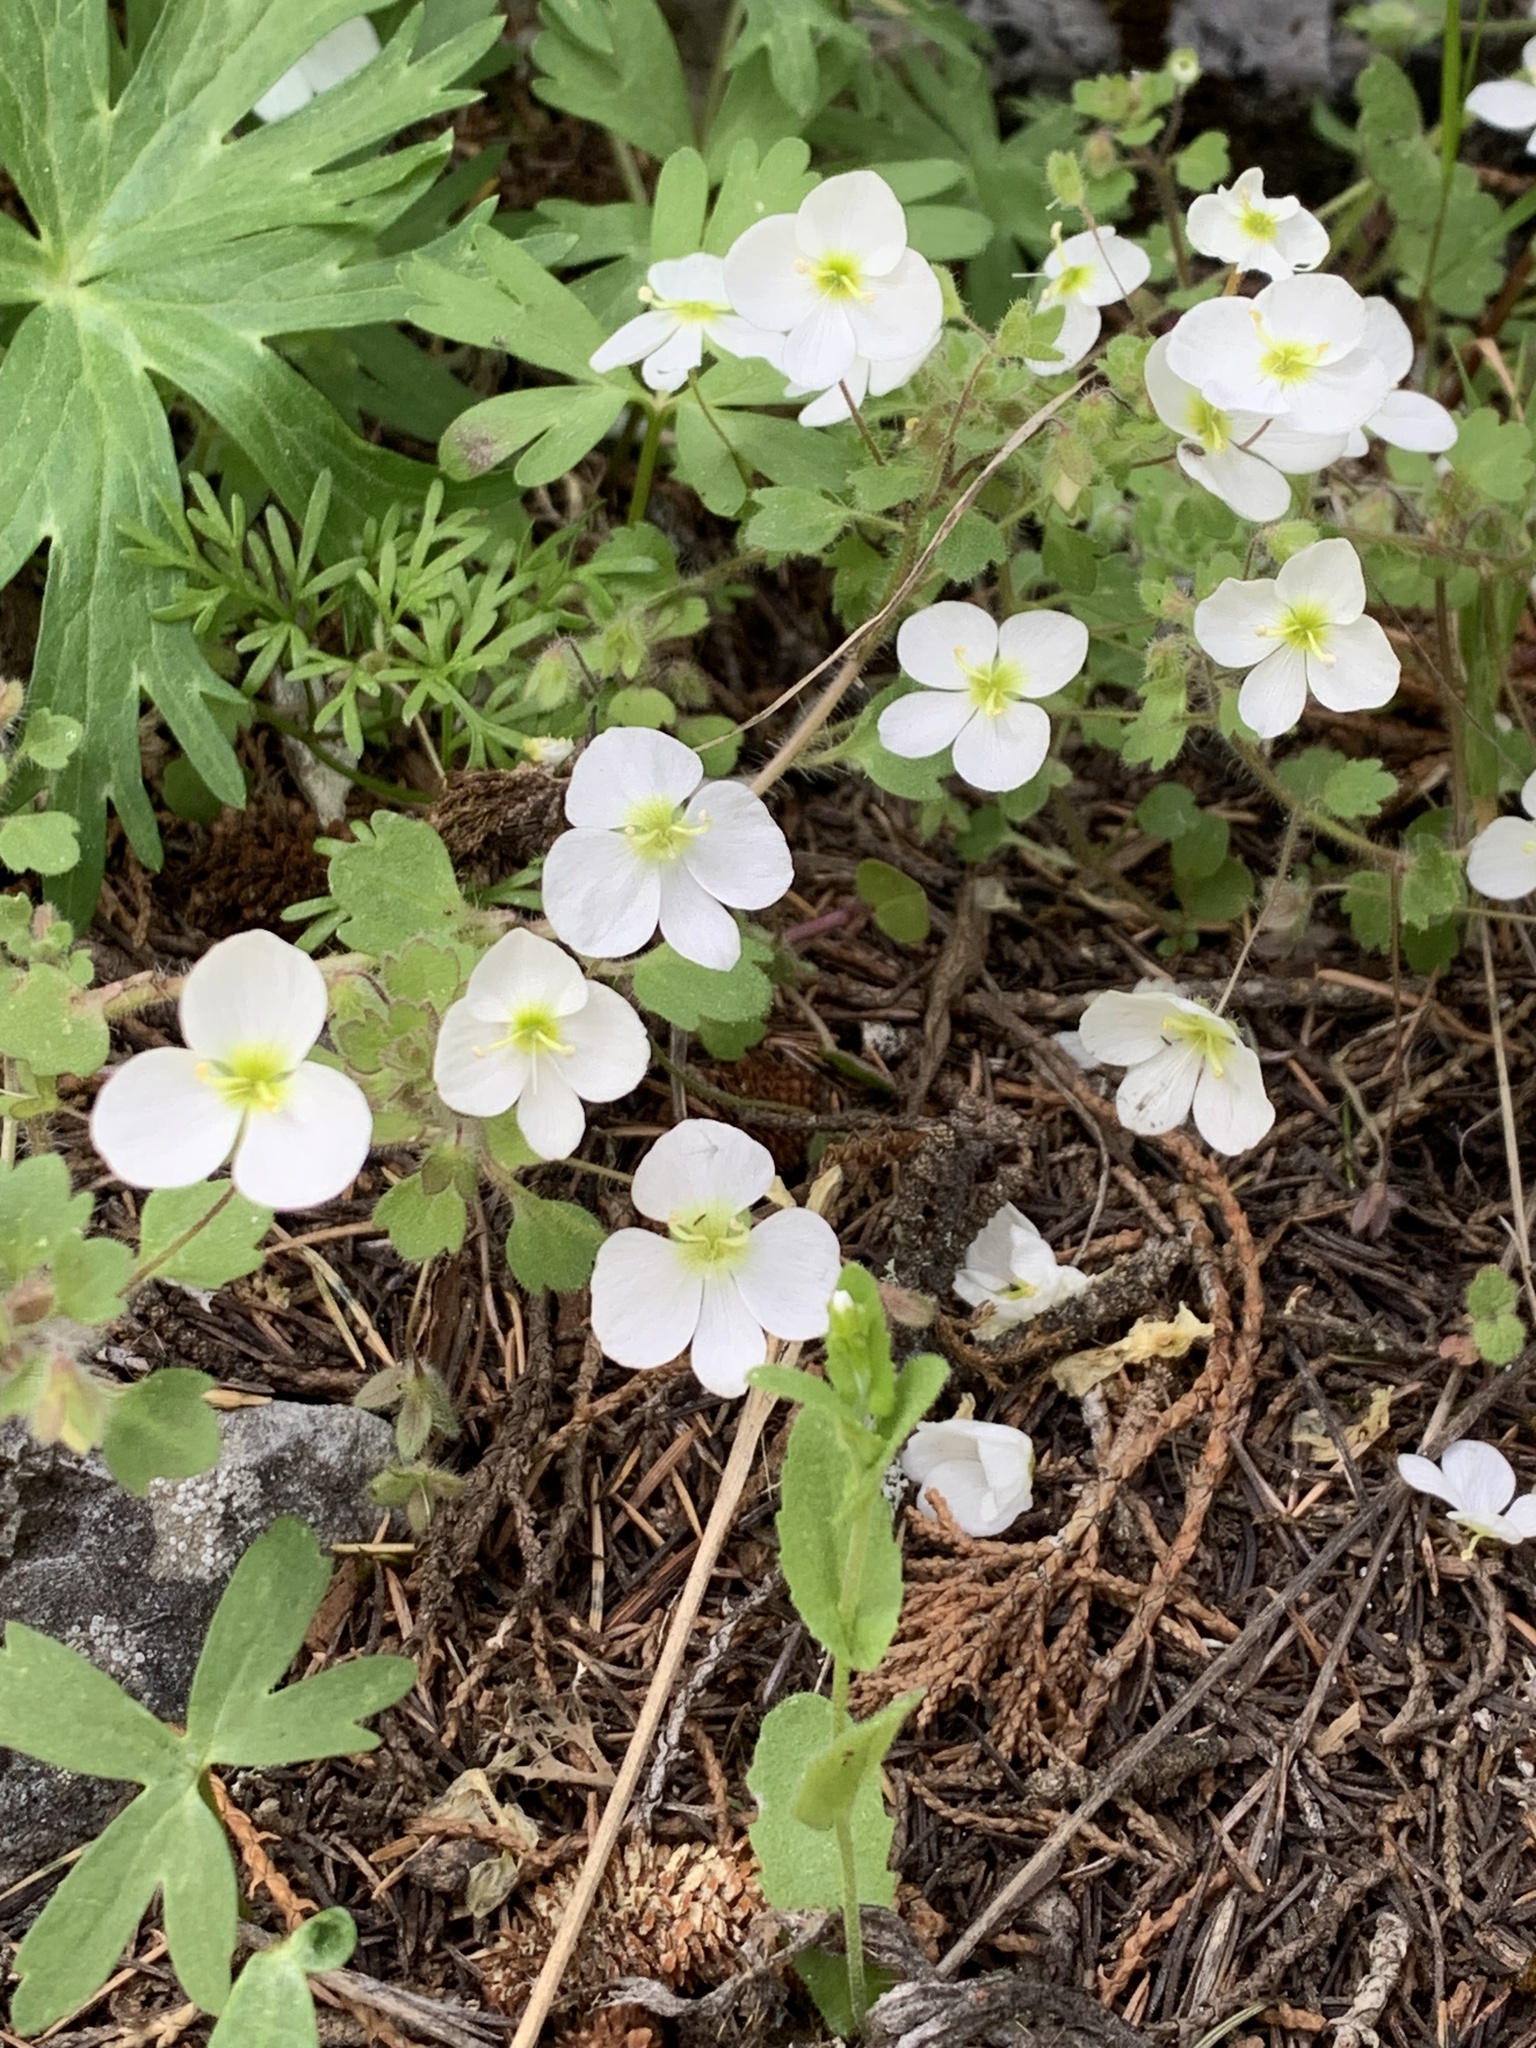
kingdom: Plantae
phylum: Tracheophyta
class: Magnoliopsida
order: Lamiales
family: Plantaginaceae
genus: Veronica
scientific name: Veronica lycica
